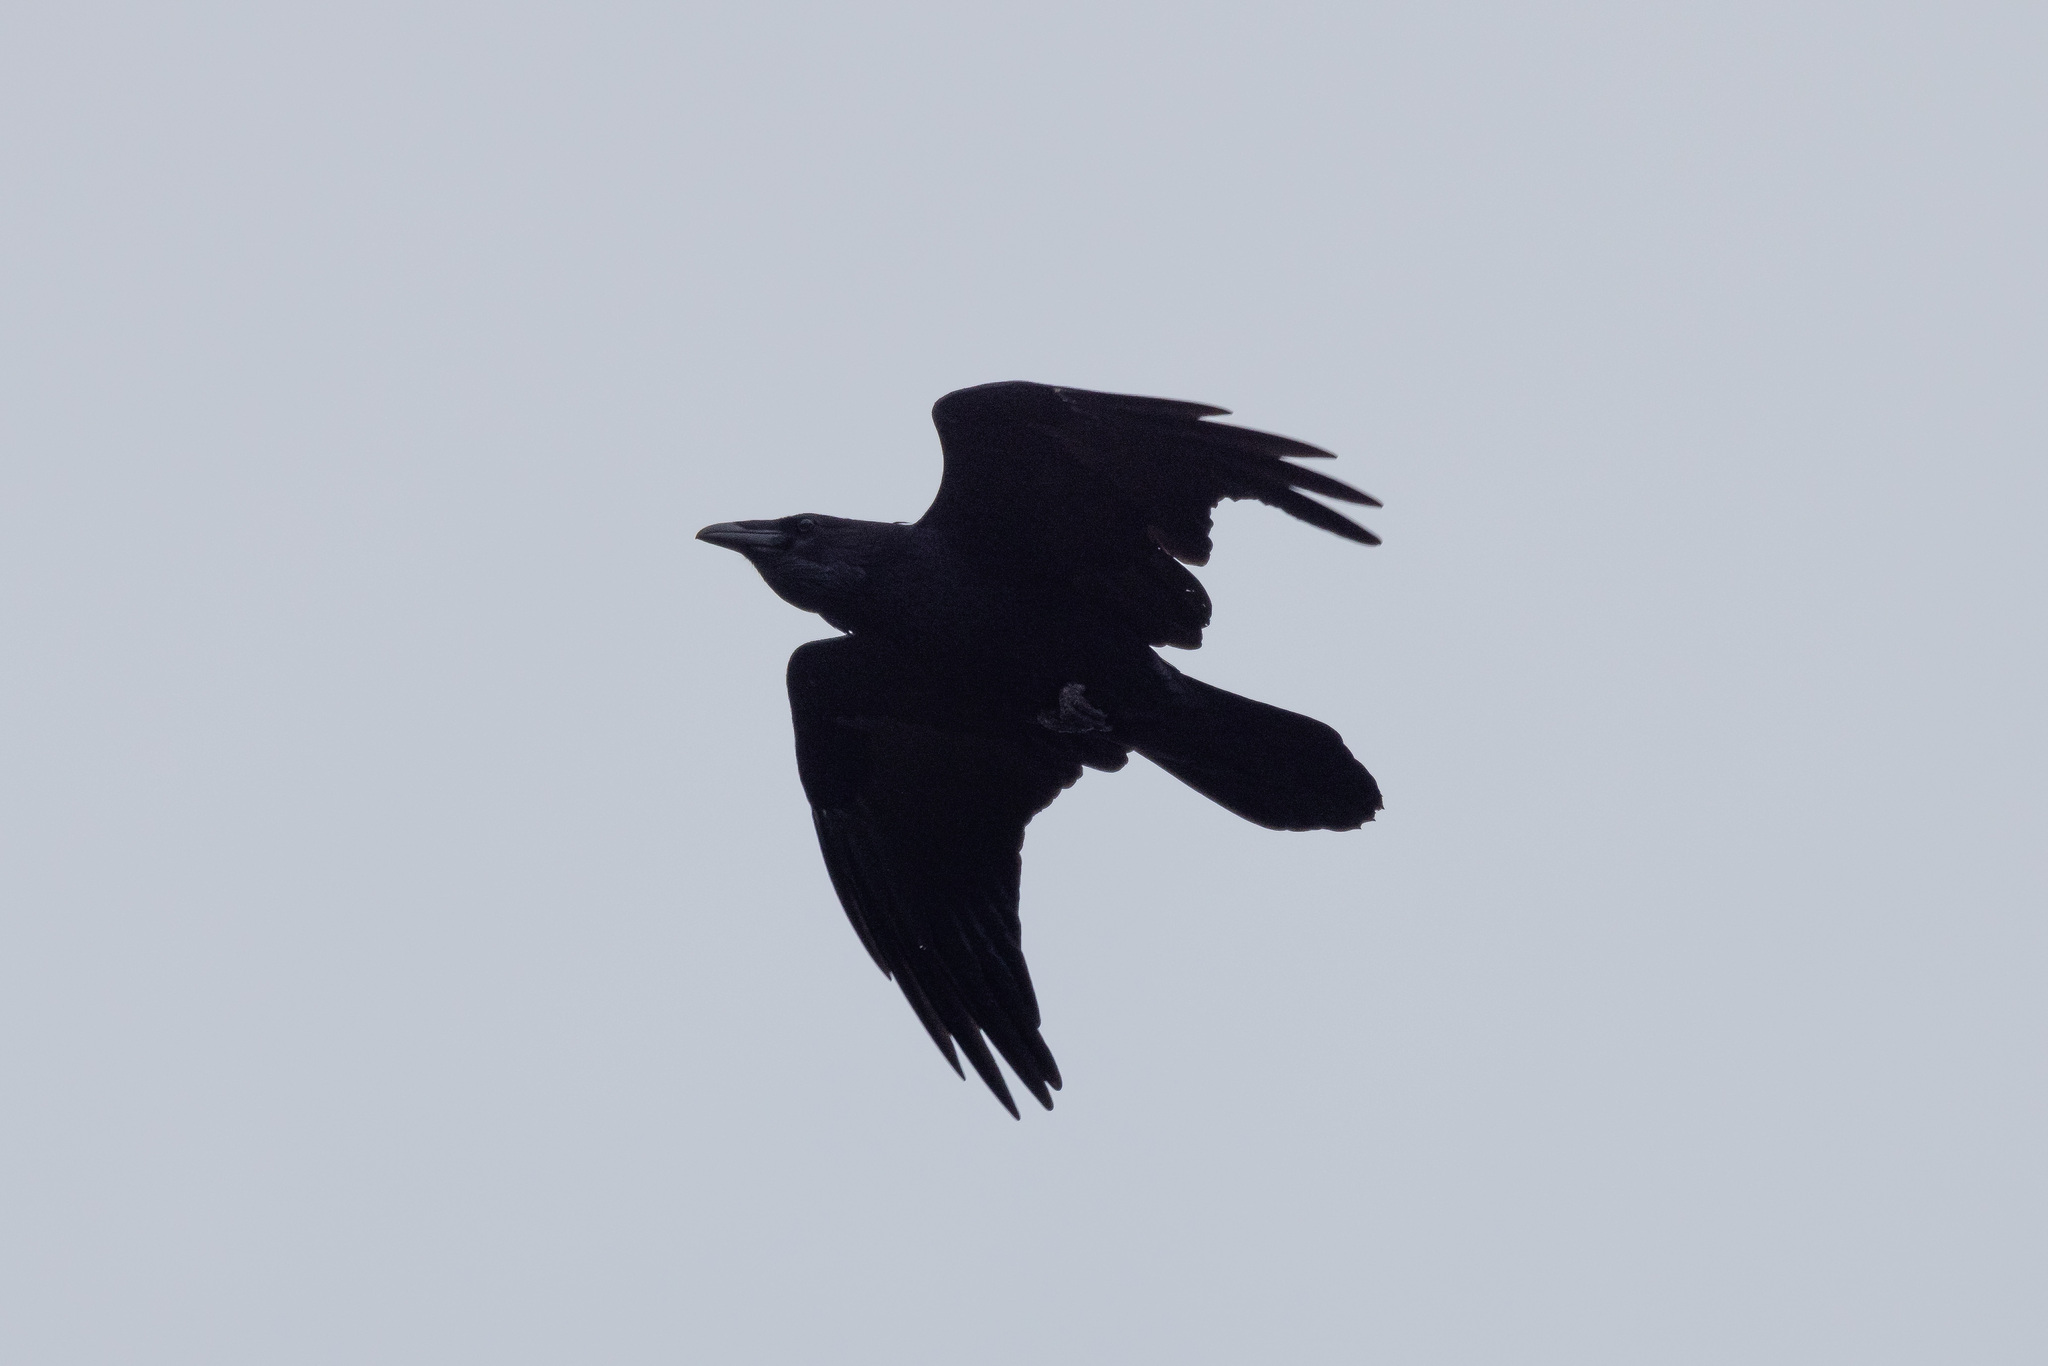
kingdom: Animalia
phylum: Chordata
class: Aves
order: Passeriformes
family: Corvidae
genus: Corvus
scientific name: Corvus corax
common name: Common raven
